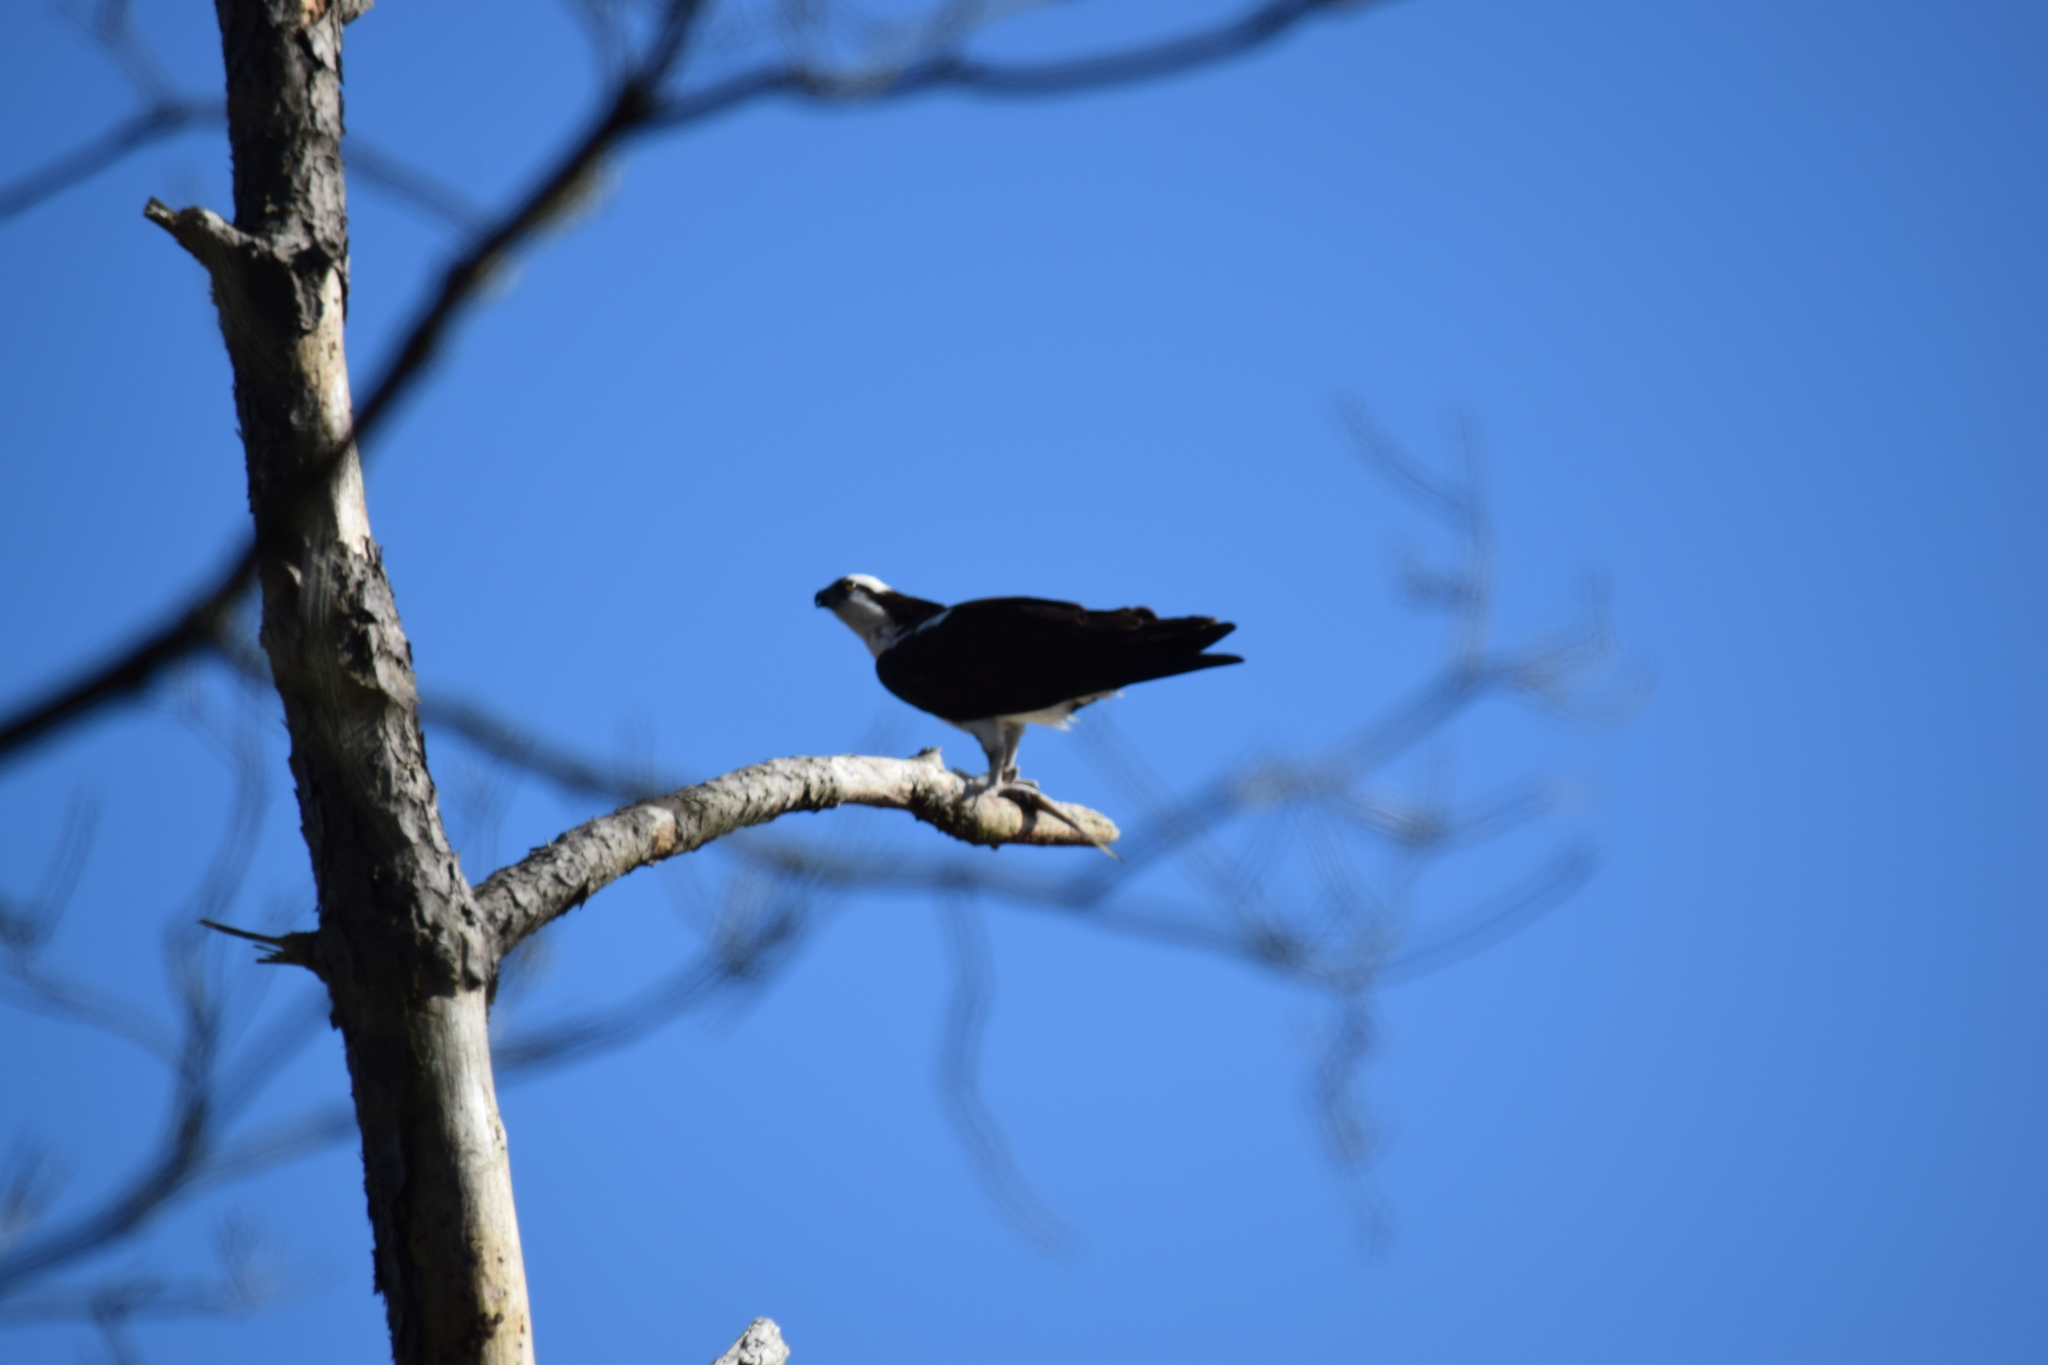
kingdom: Animalia
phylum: Chordata
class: Aves
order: Accipitriformes
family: Pandionidae
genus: Pandion
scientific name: Pandion haliaetus
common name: Osprey
